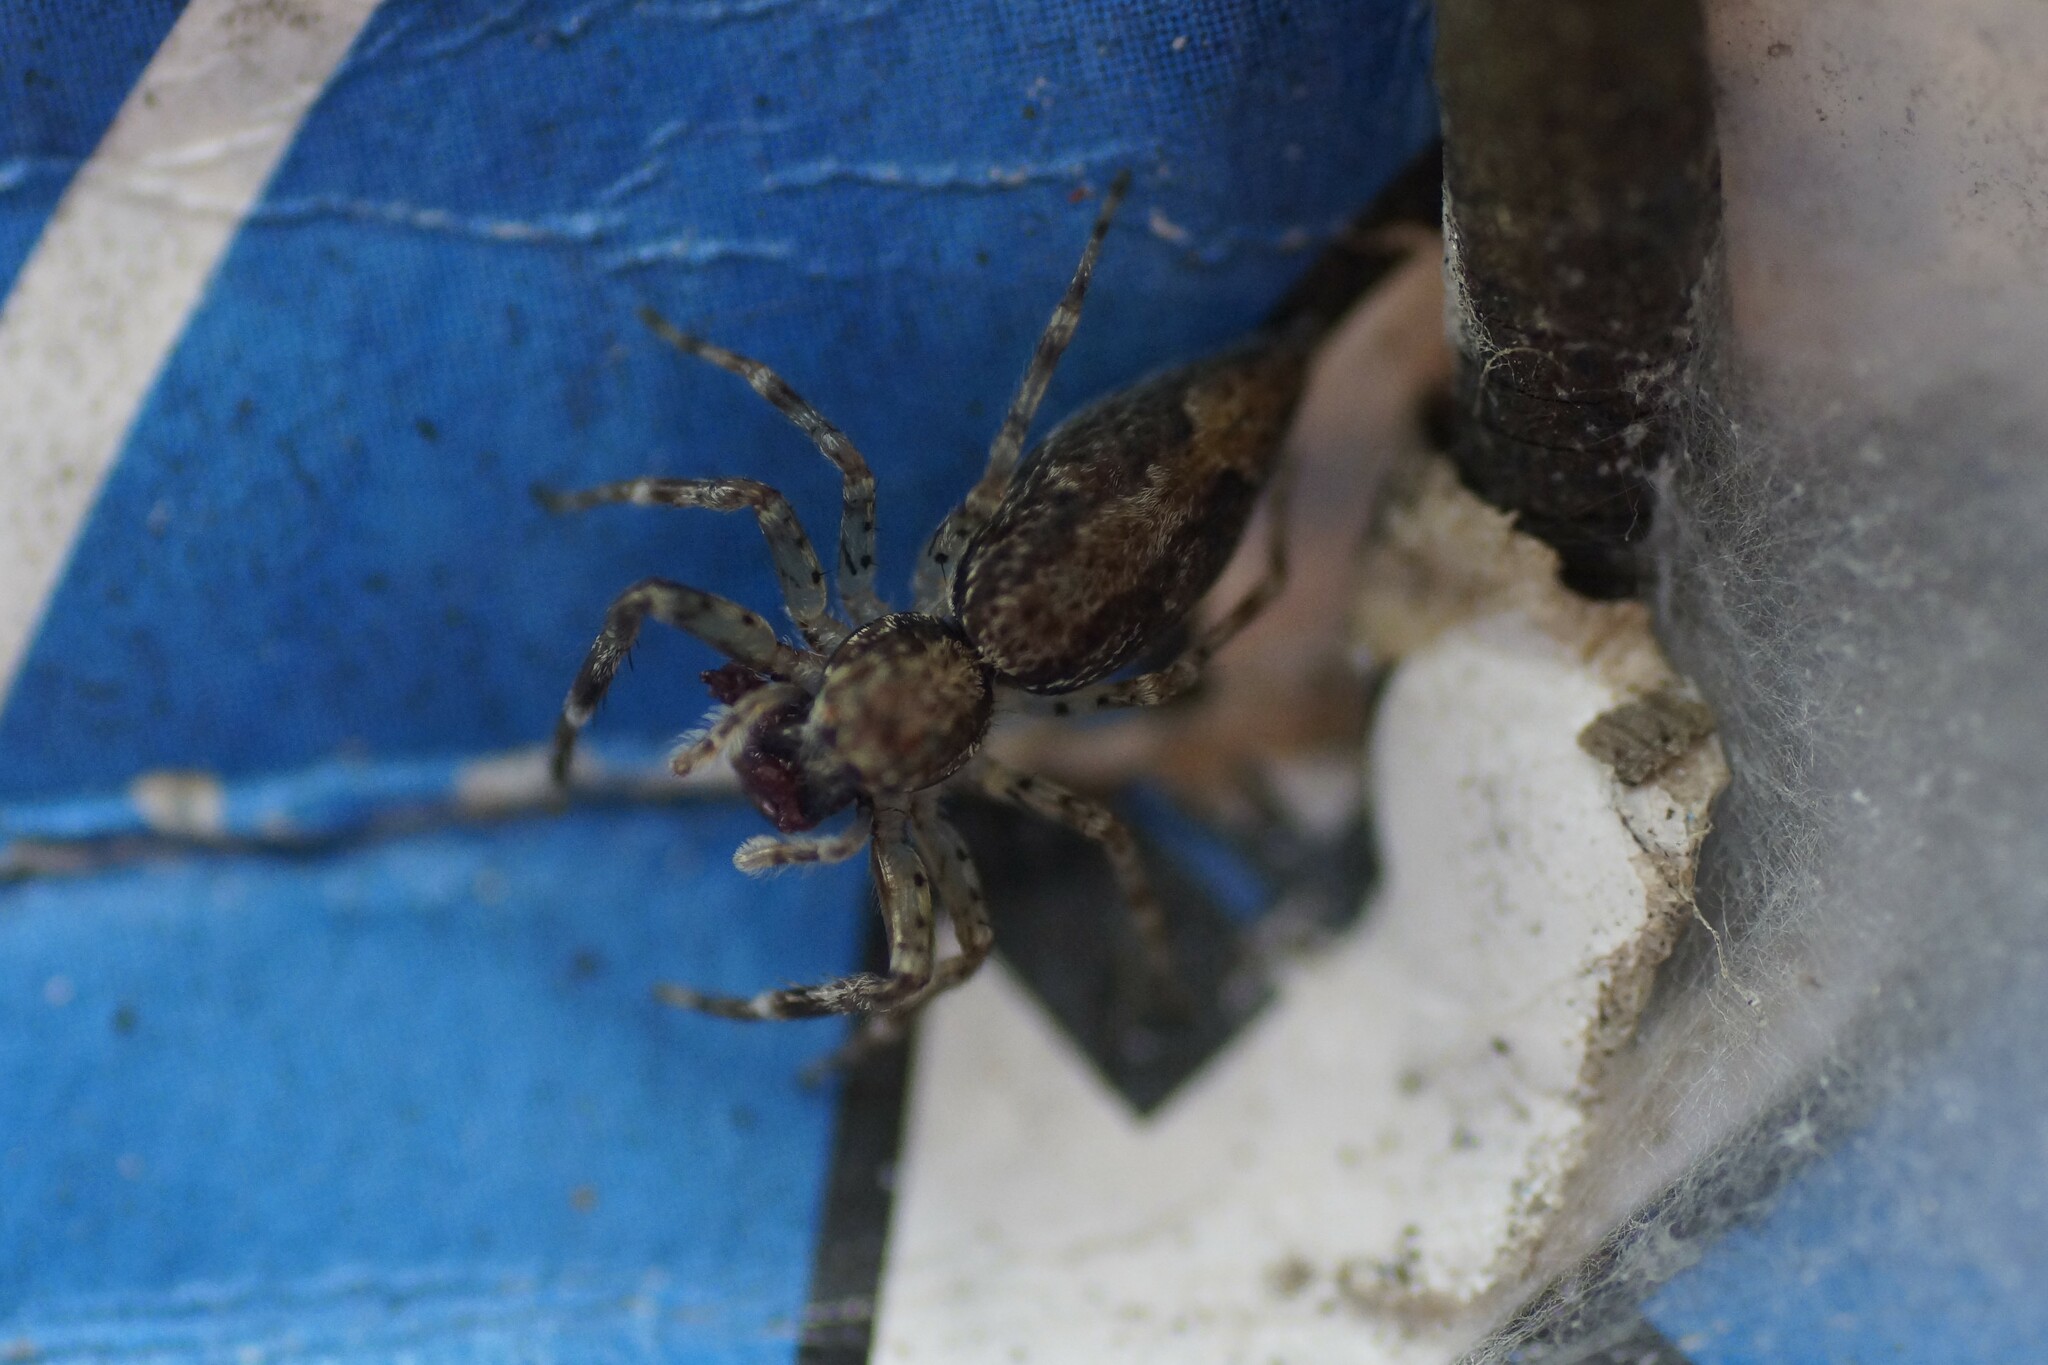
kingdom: Animalia
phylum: Arthropoda
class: Arachnida
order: Araneae
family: Salticidae
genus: Helpis
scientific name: Helpis minitabunda
